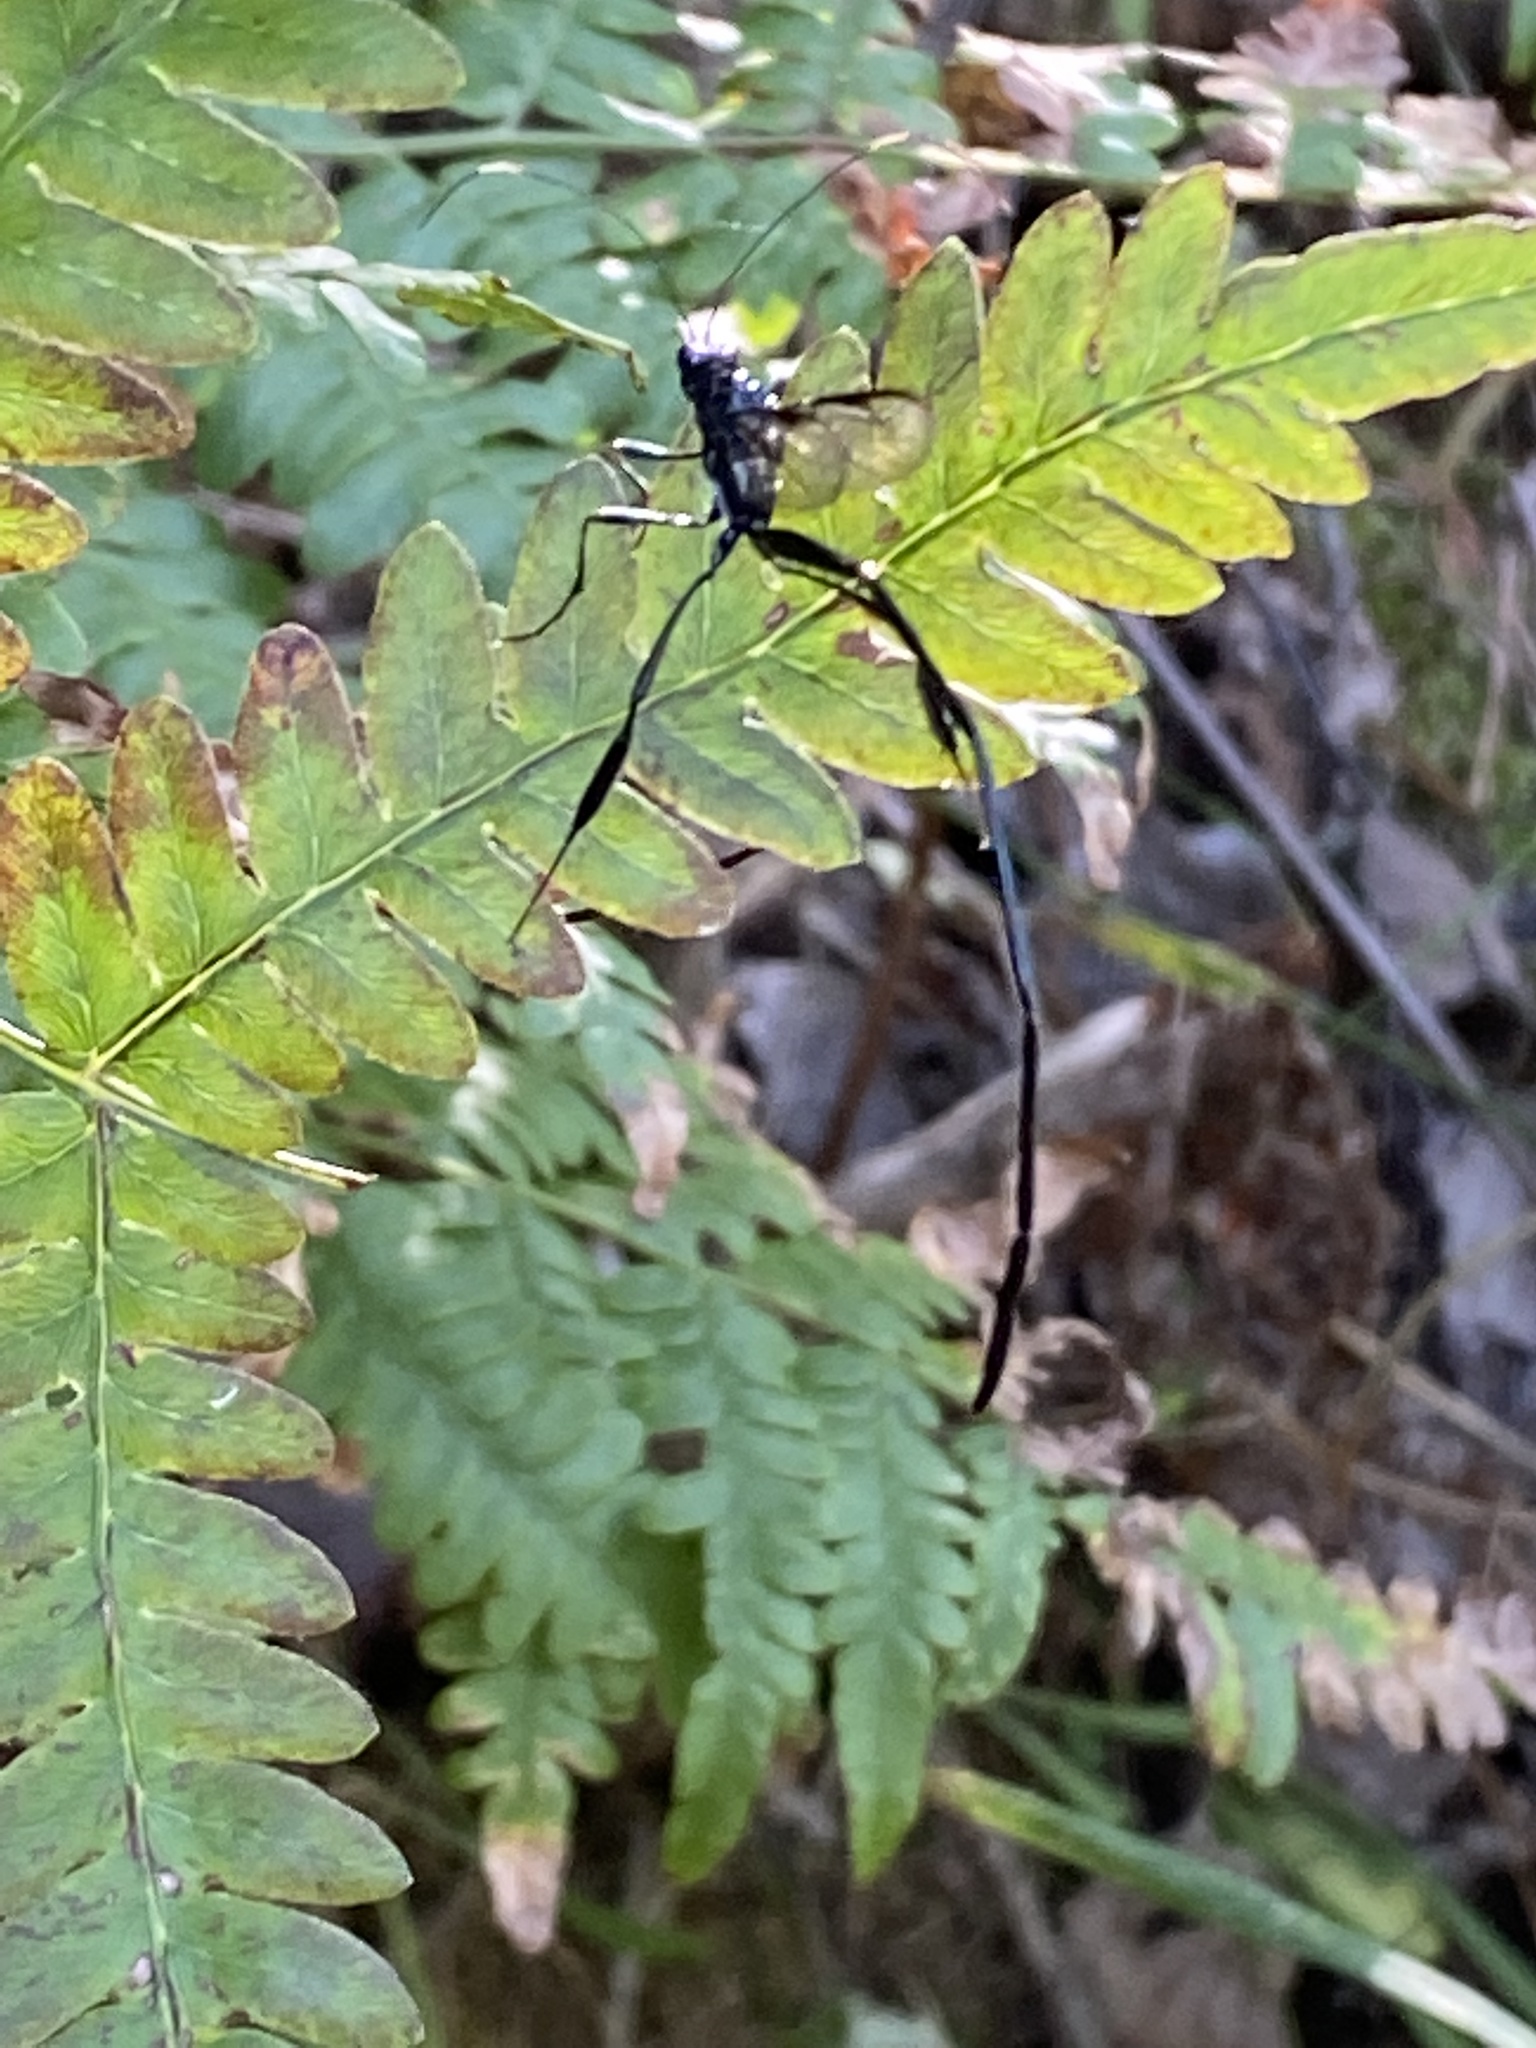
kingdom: Animalia
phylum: Arthropoda
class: Insecta
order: Hymenoptera
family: Pelecinidae
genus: Pelecinus
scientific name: Pelecinus polyturator
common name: American pelecinid wasp
